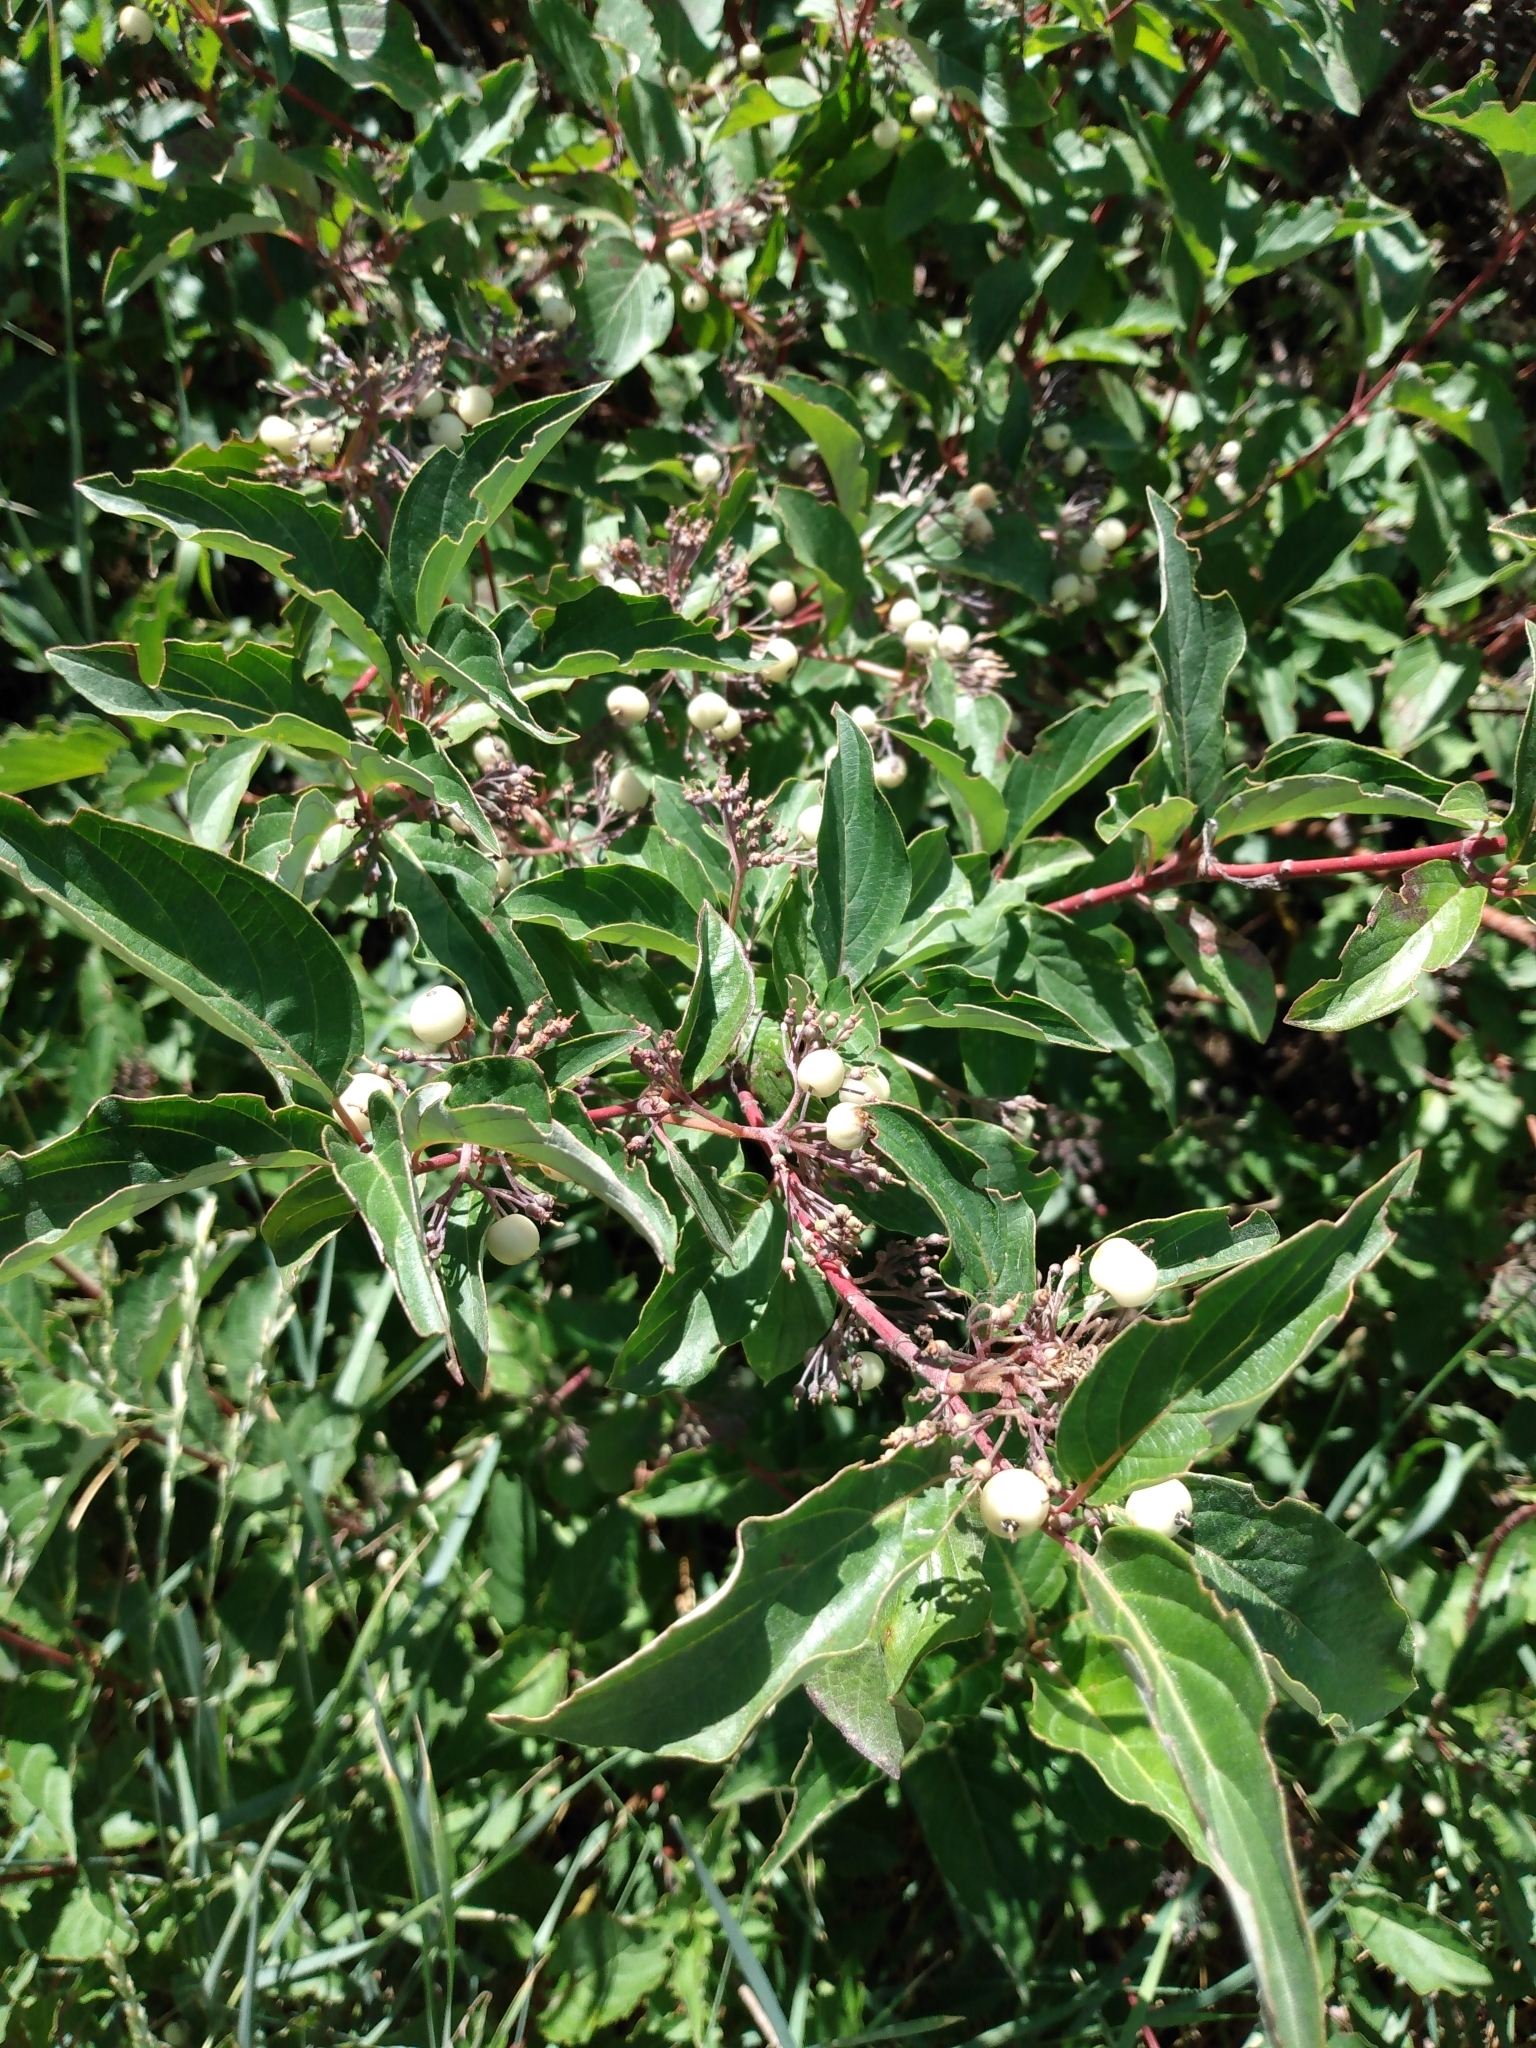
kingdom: Plantae
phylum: Tracheophyta
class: Magnoliopsida
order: Cornales
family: Cornaceae
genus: Cornus
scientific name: Cornus sericea
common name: Red-osier dogwood
